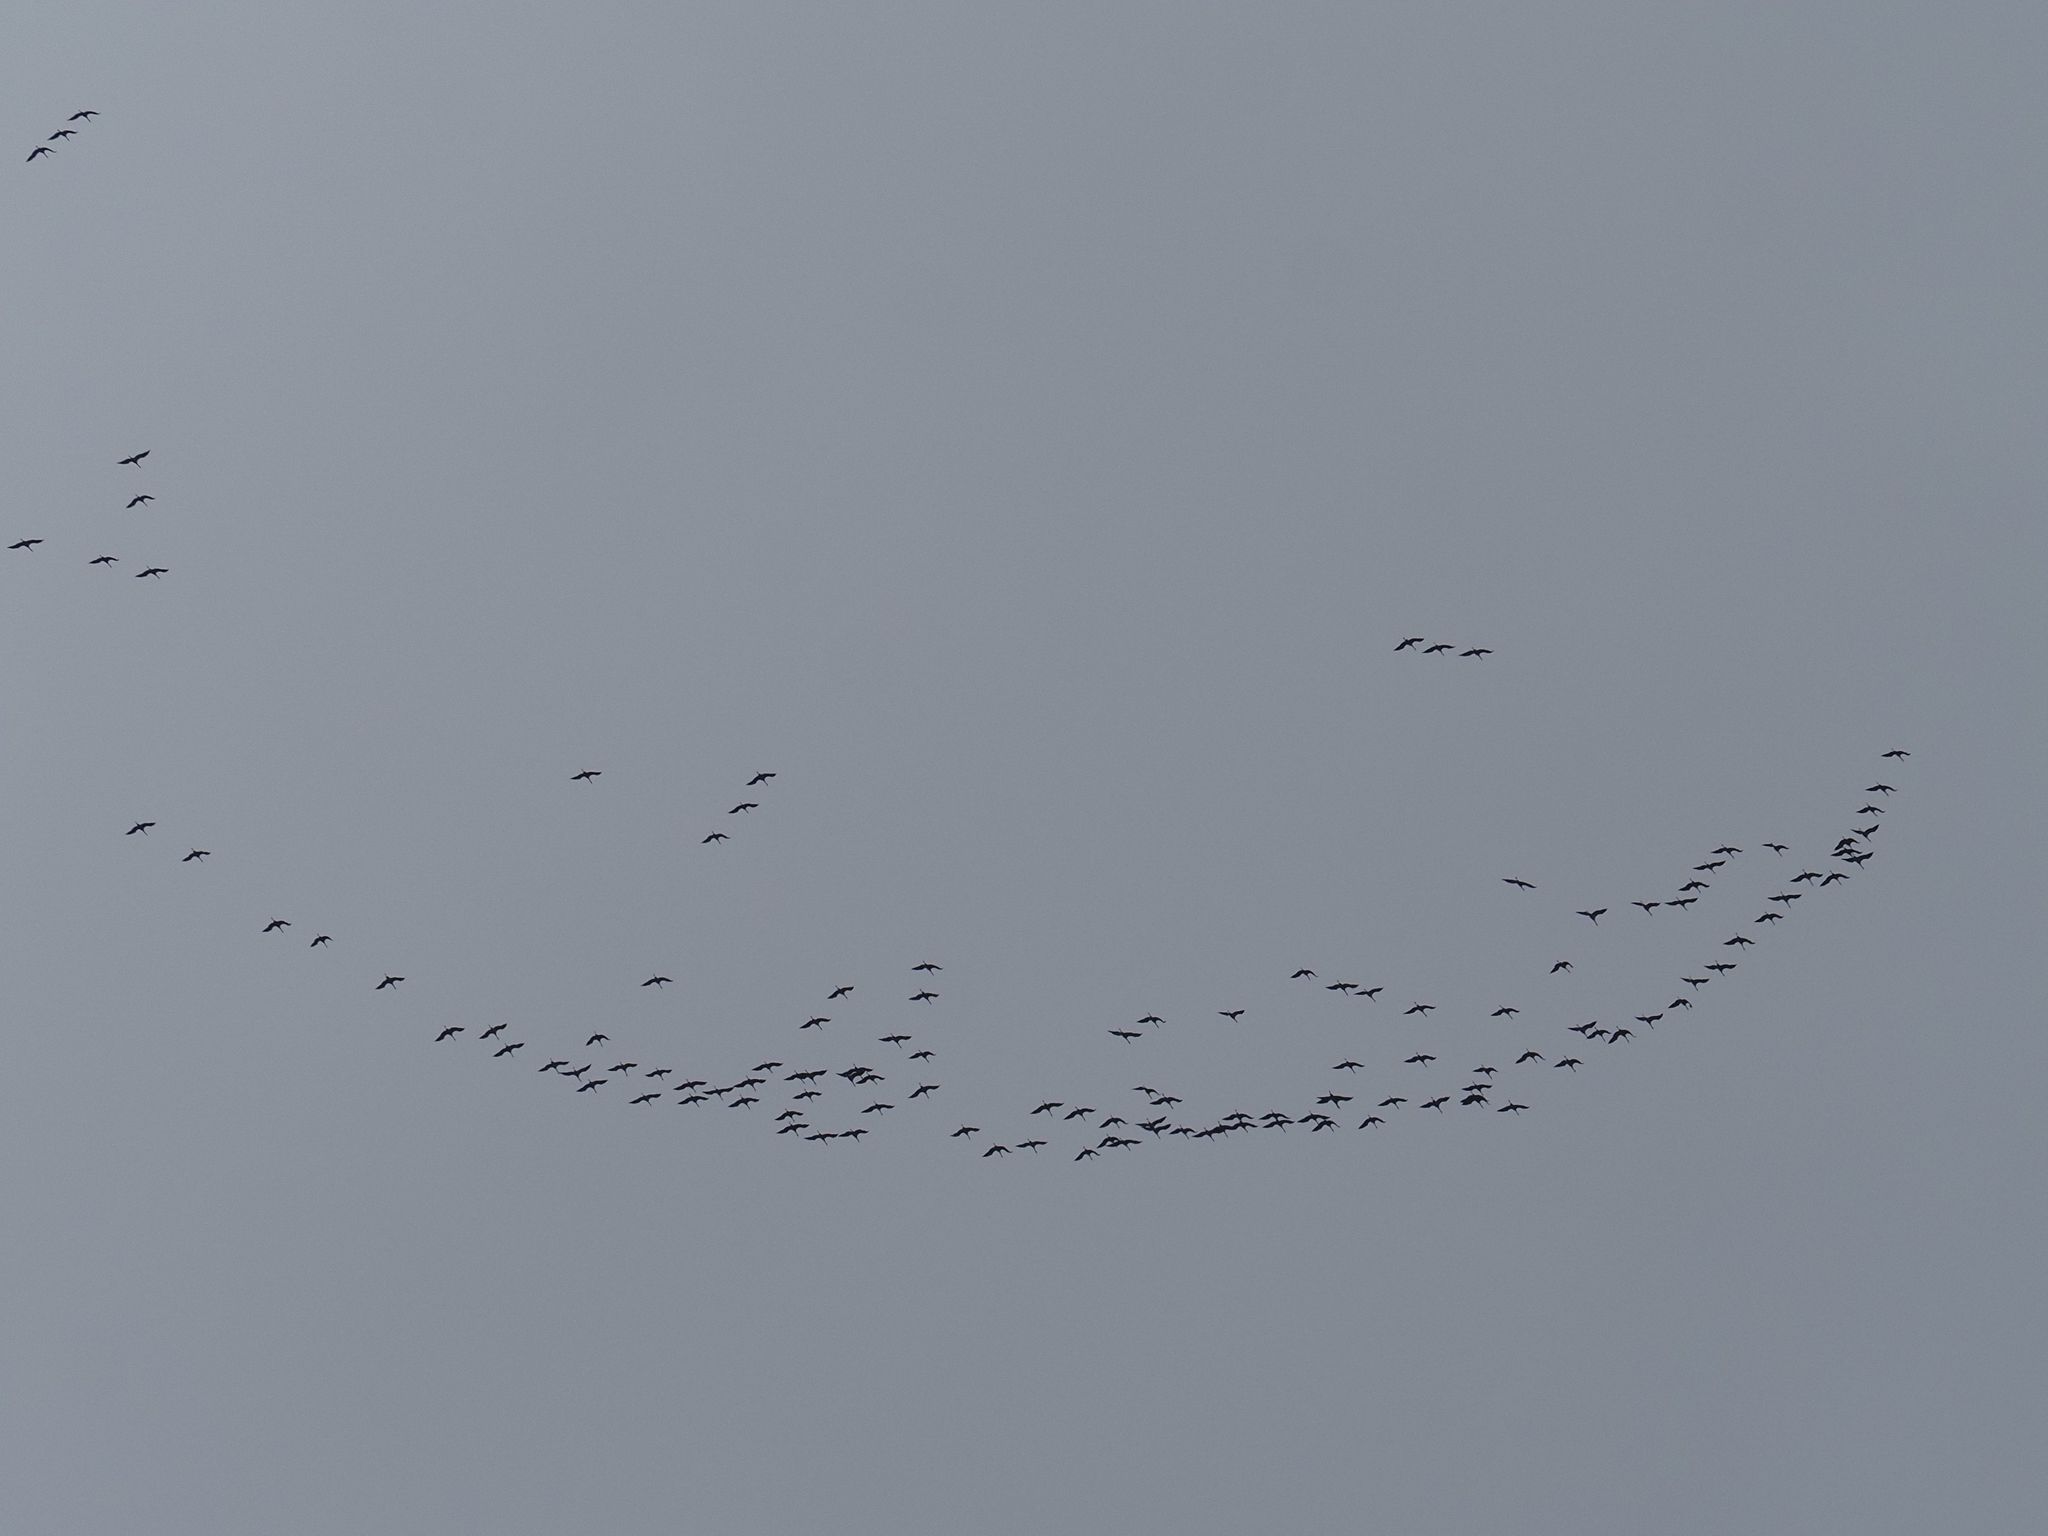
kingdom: Animalia
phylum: Chordata
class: Aves
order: Gruiformes
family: Gruidae
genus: Grus
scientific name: Grus grus
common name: Common crane
